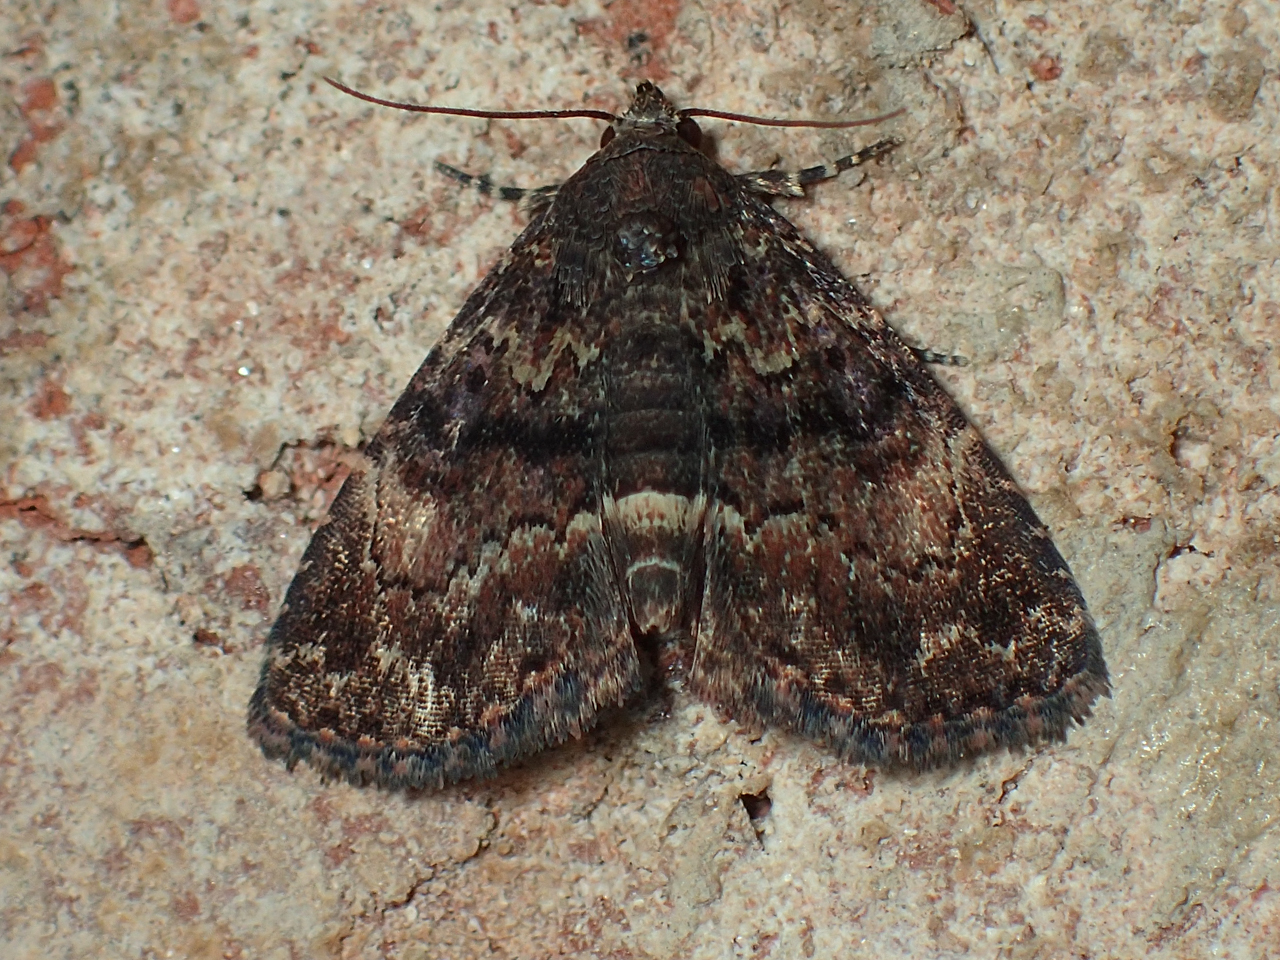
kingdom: Animalia
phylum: Arthropoda
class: Insecta
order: Lepidoptera
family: Erebidae
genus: Metalectra
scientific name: Metalectra richardsi
